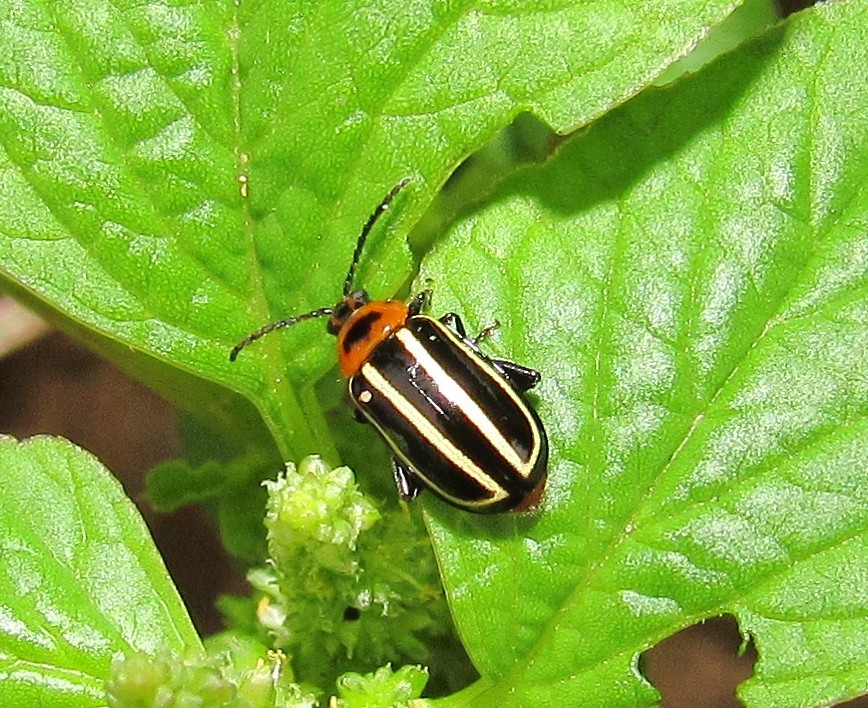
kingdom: Animalia
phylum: Arthropoda
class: Insecta
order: Coleoptera
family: Chrysomelidae
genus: Disonycha
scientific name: Disonycha
